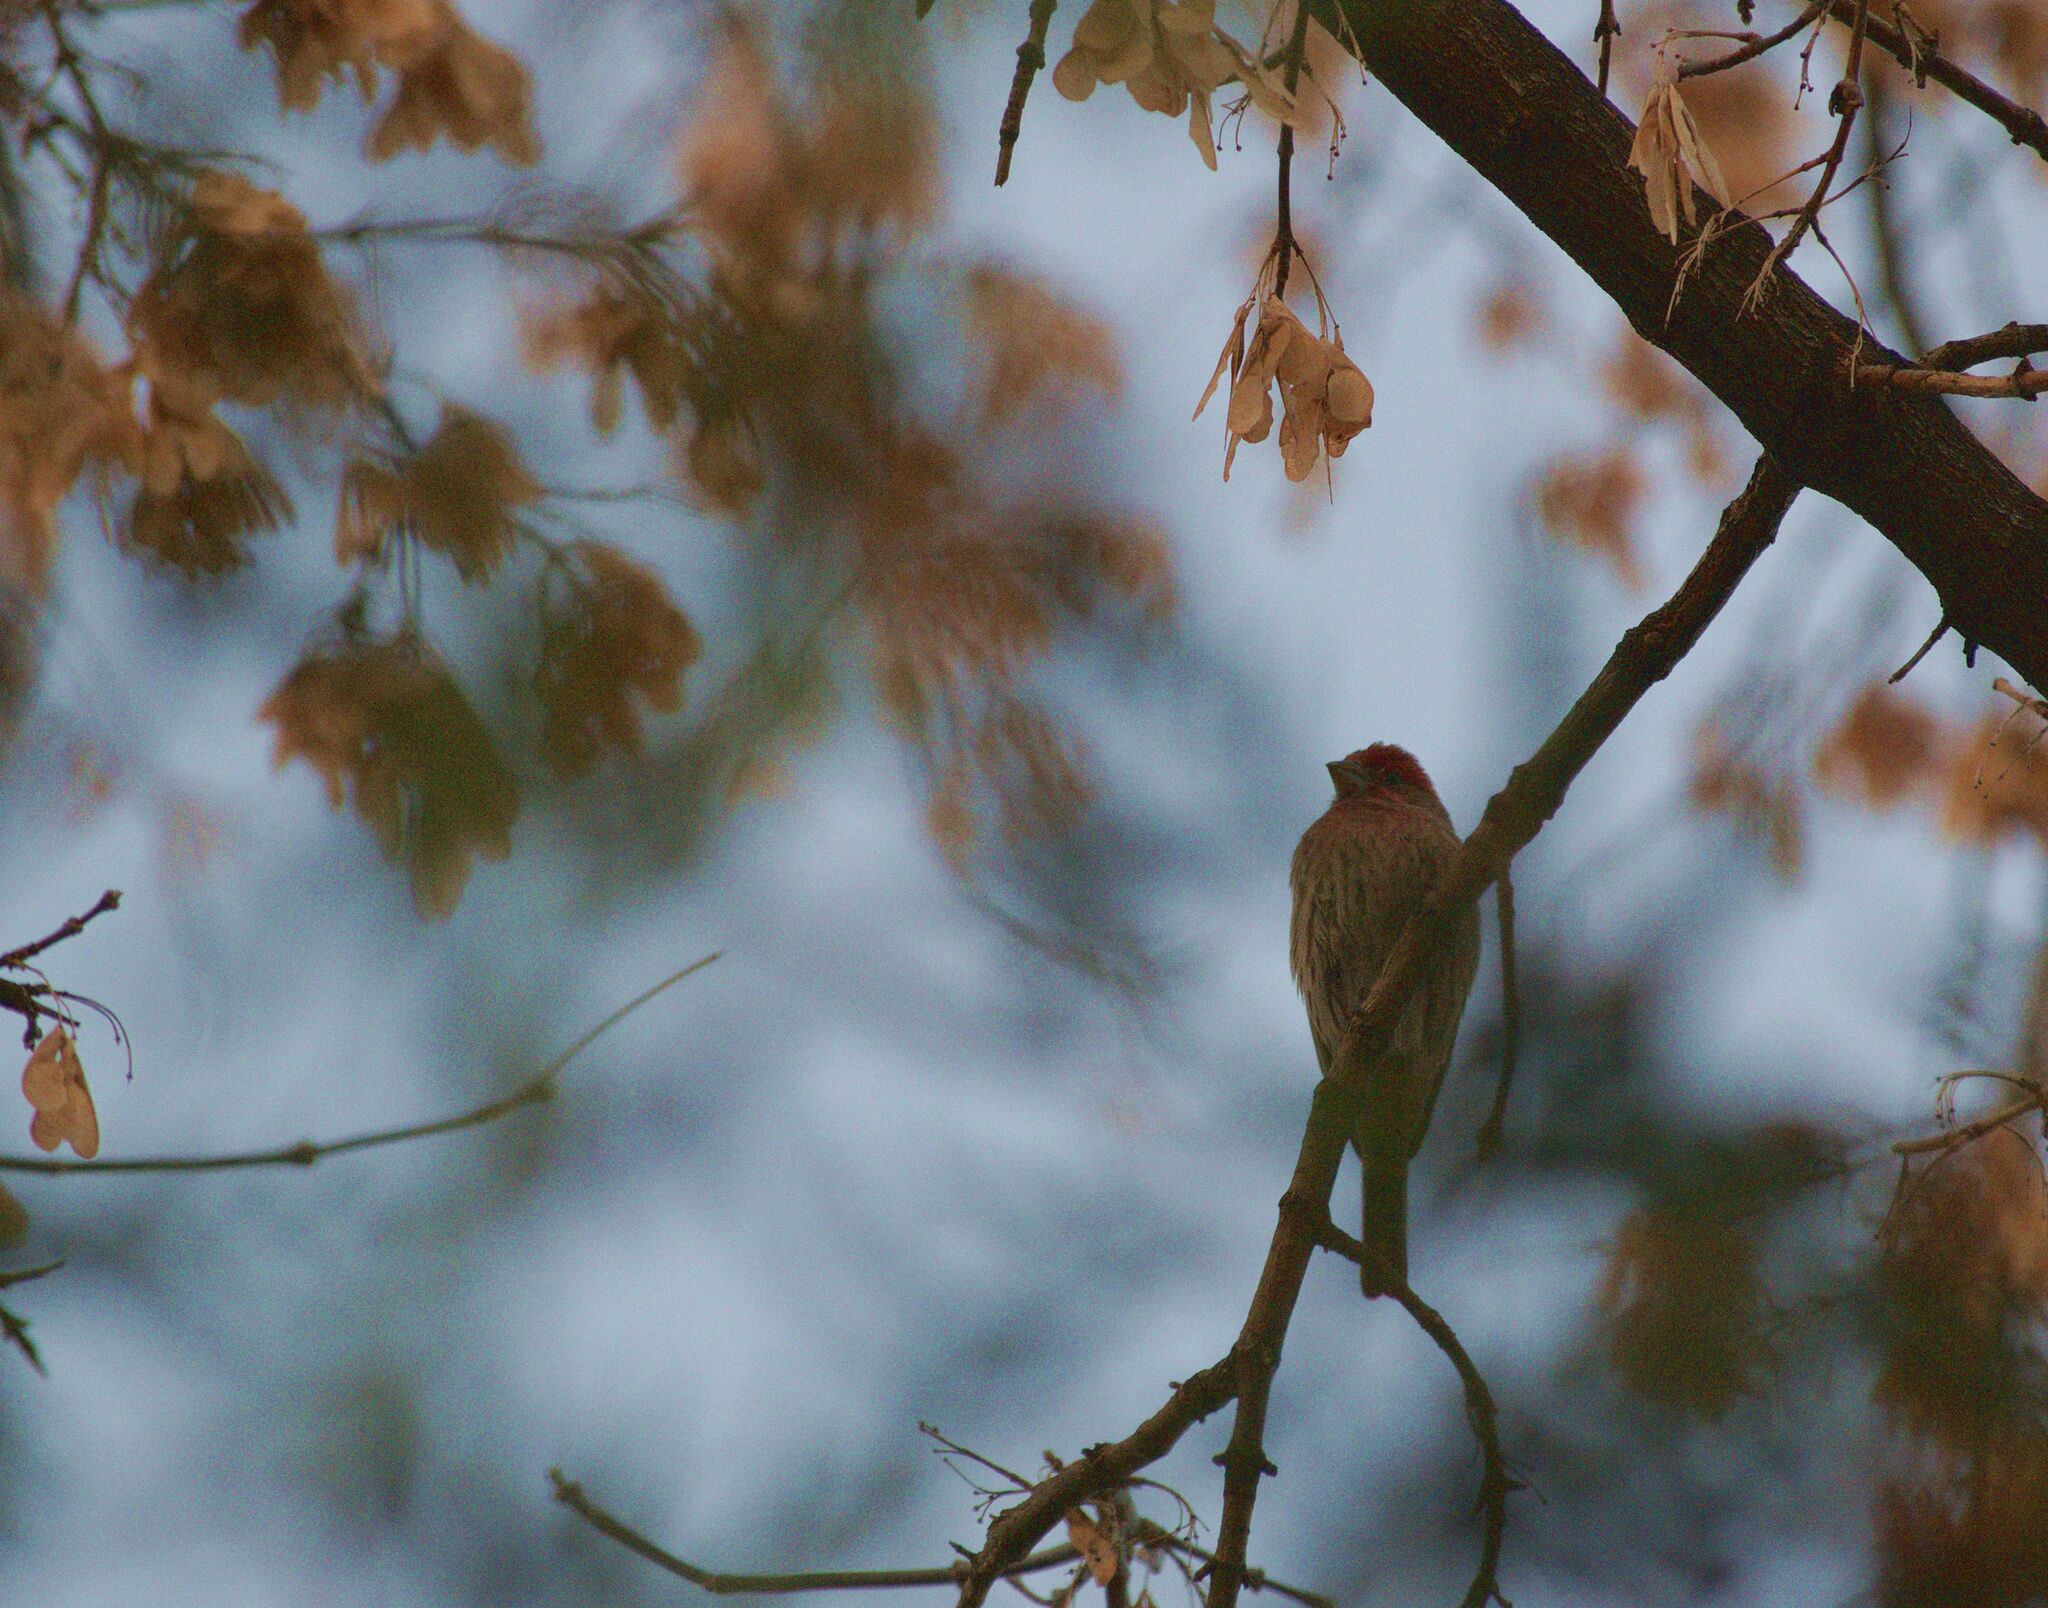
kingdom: Animalia
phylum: Chordata
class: Aves
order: Passeriformes
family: Fringillidae
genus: Haemorhous
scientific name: Haemorhous mexicanus
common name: House finch
